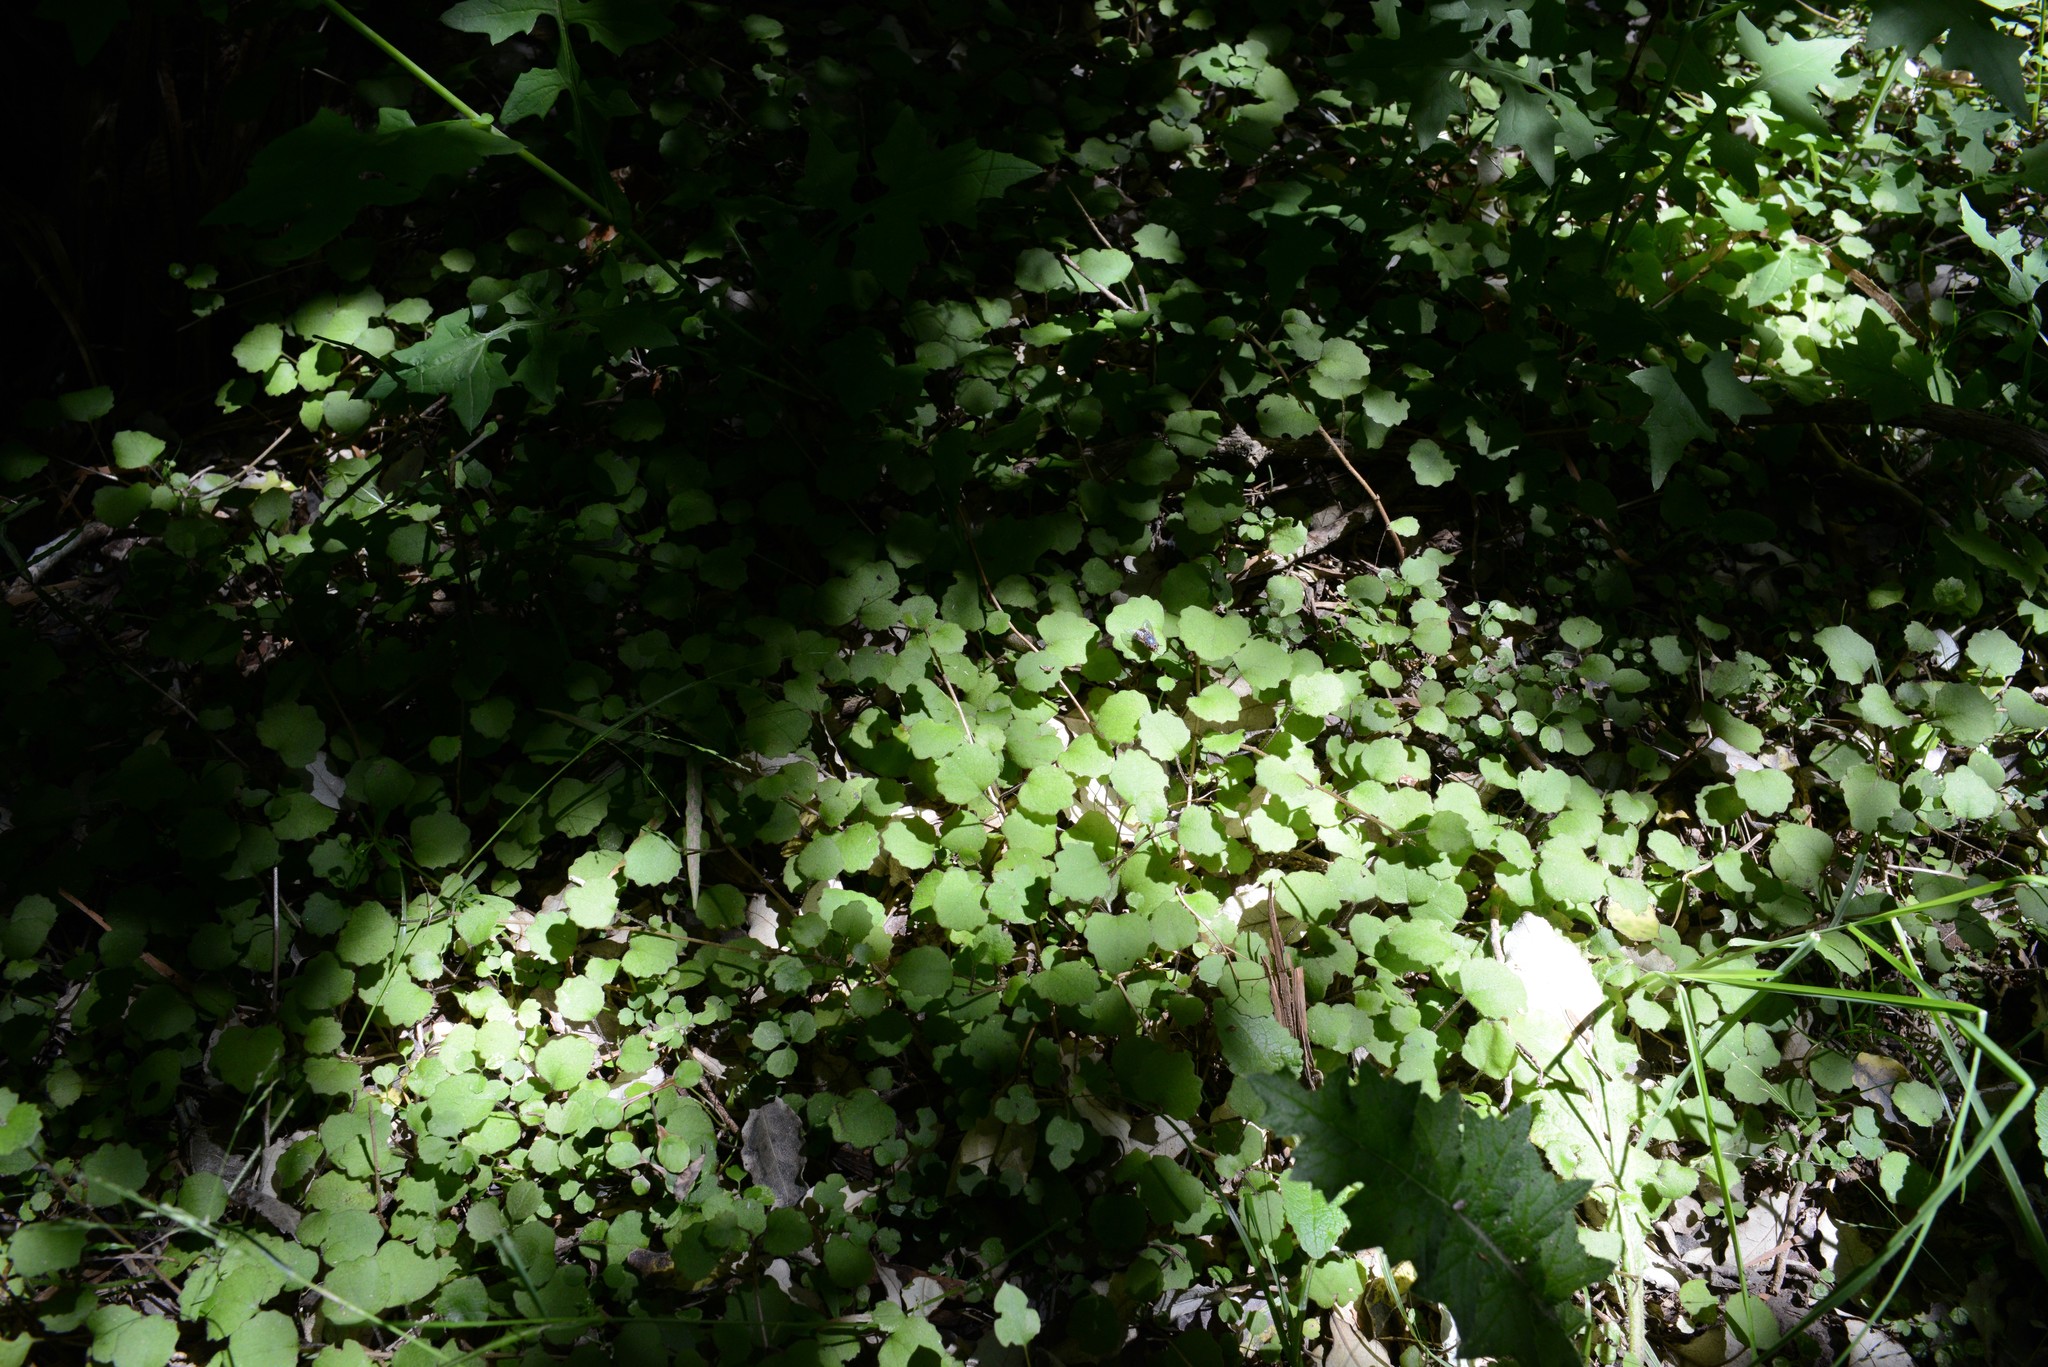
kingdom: Plantae
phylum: Tracheophyta
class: Magnoliopsida
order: Asterales
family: Asteraceae
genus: Brachyglottis
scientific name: Brachyglottis sciadophila
